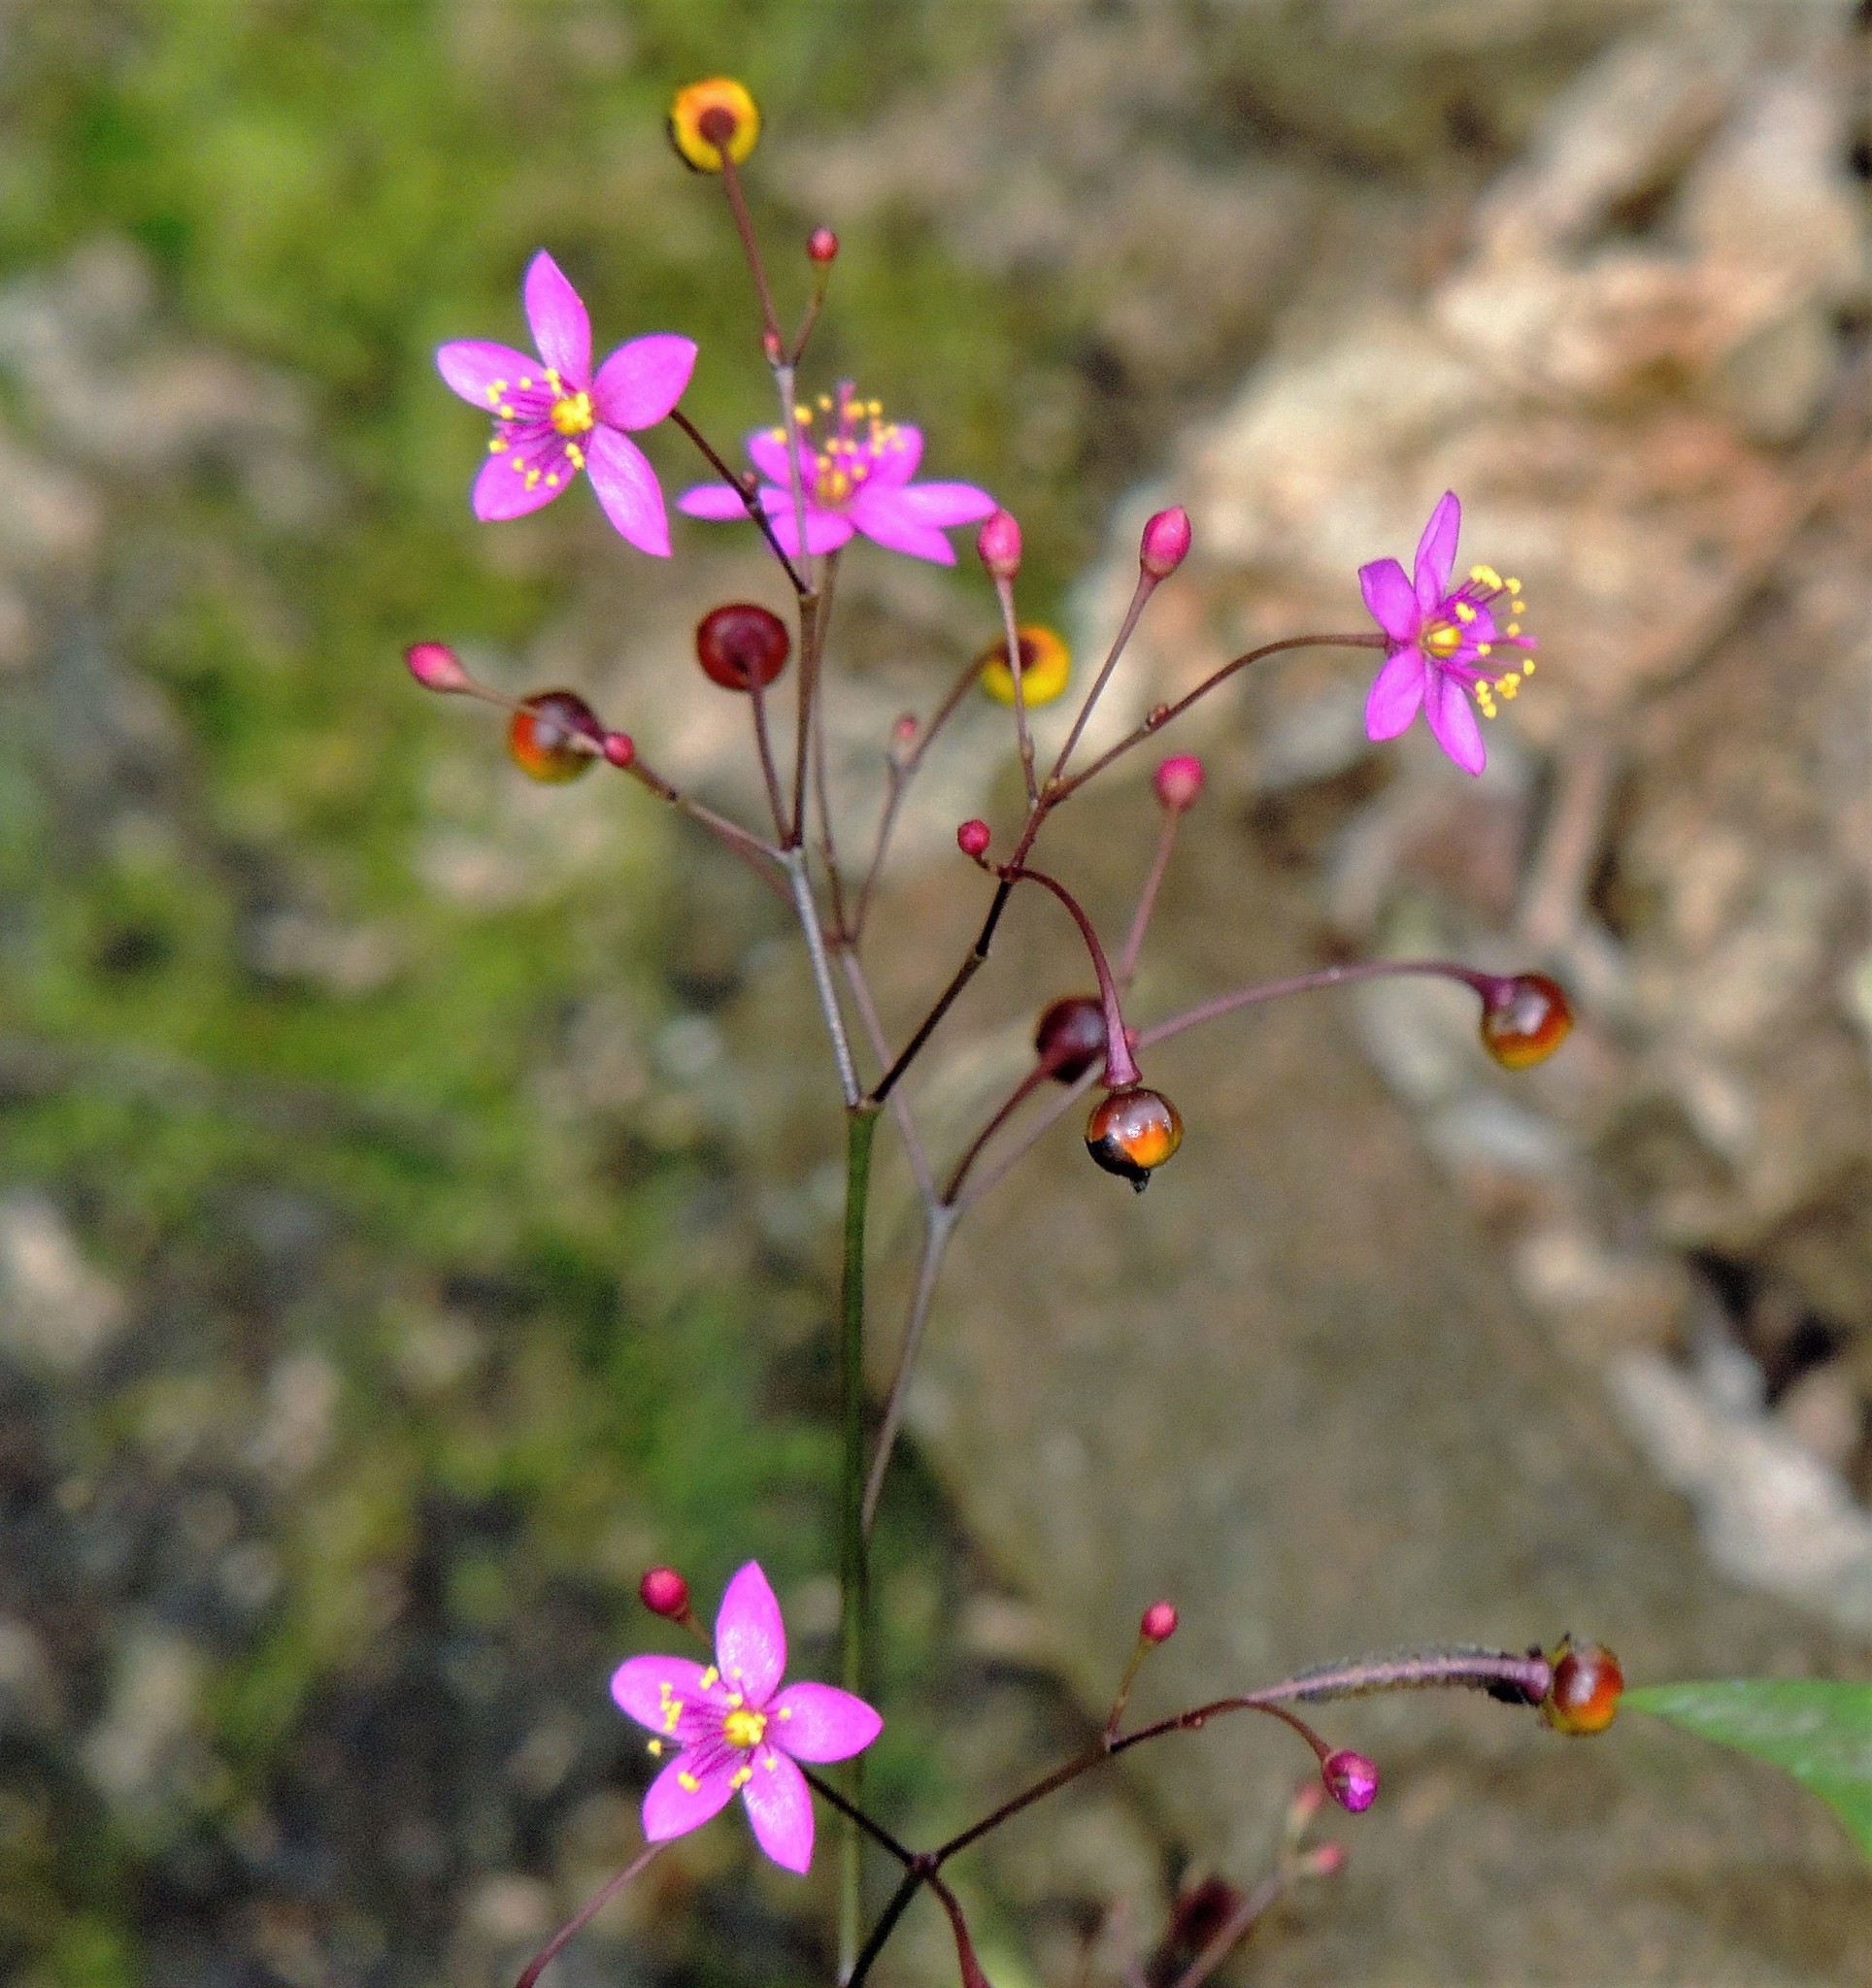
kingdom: Plantae
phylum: Tracheophyta
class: Magnoliopsida
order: Caryophyllales
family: Talinaceae
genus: Talinum
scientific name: Talinum paniculatum
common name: Jewels of opar
